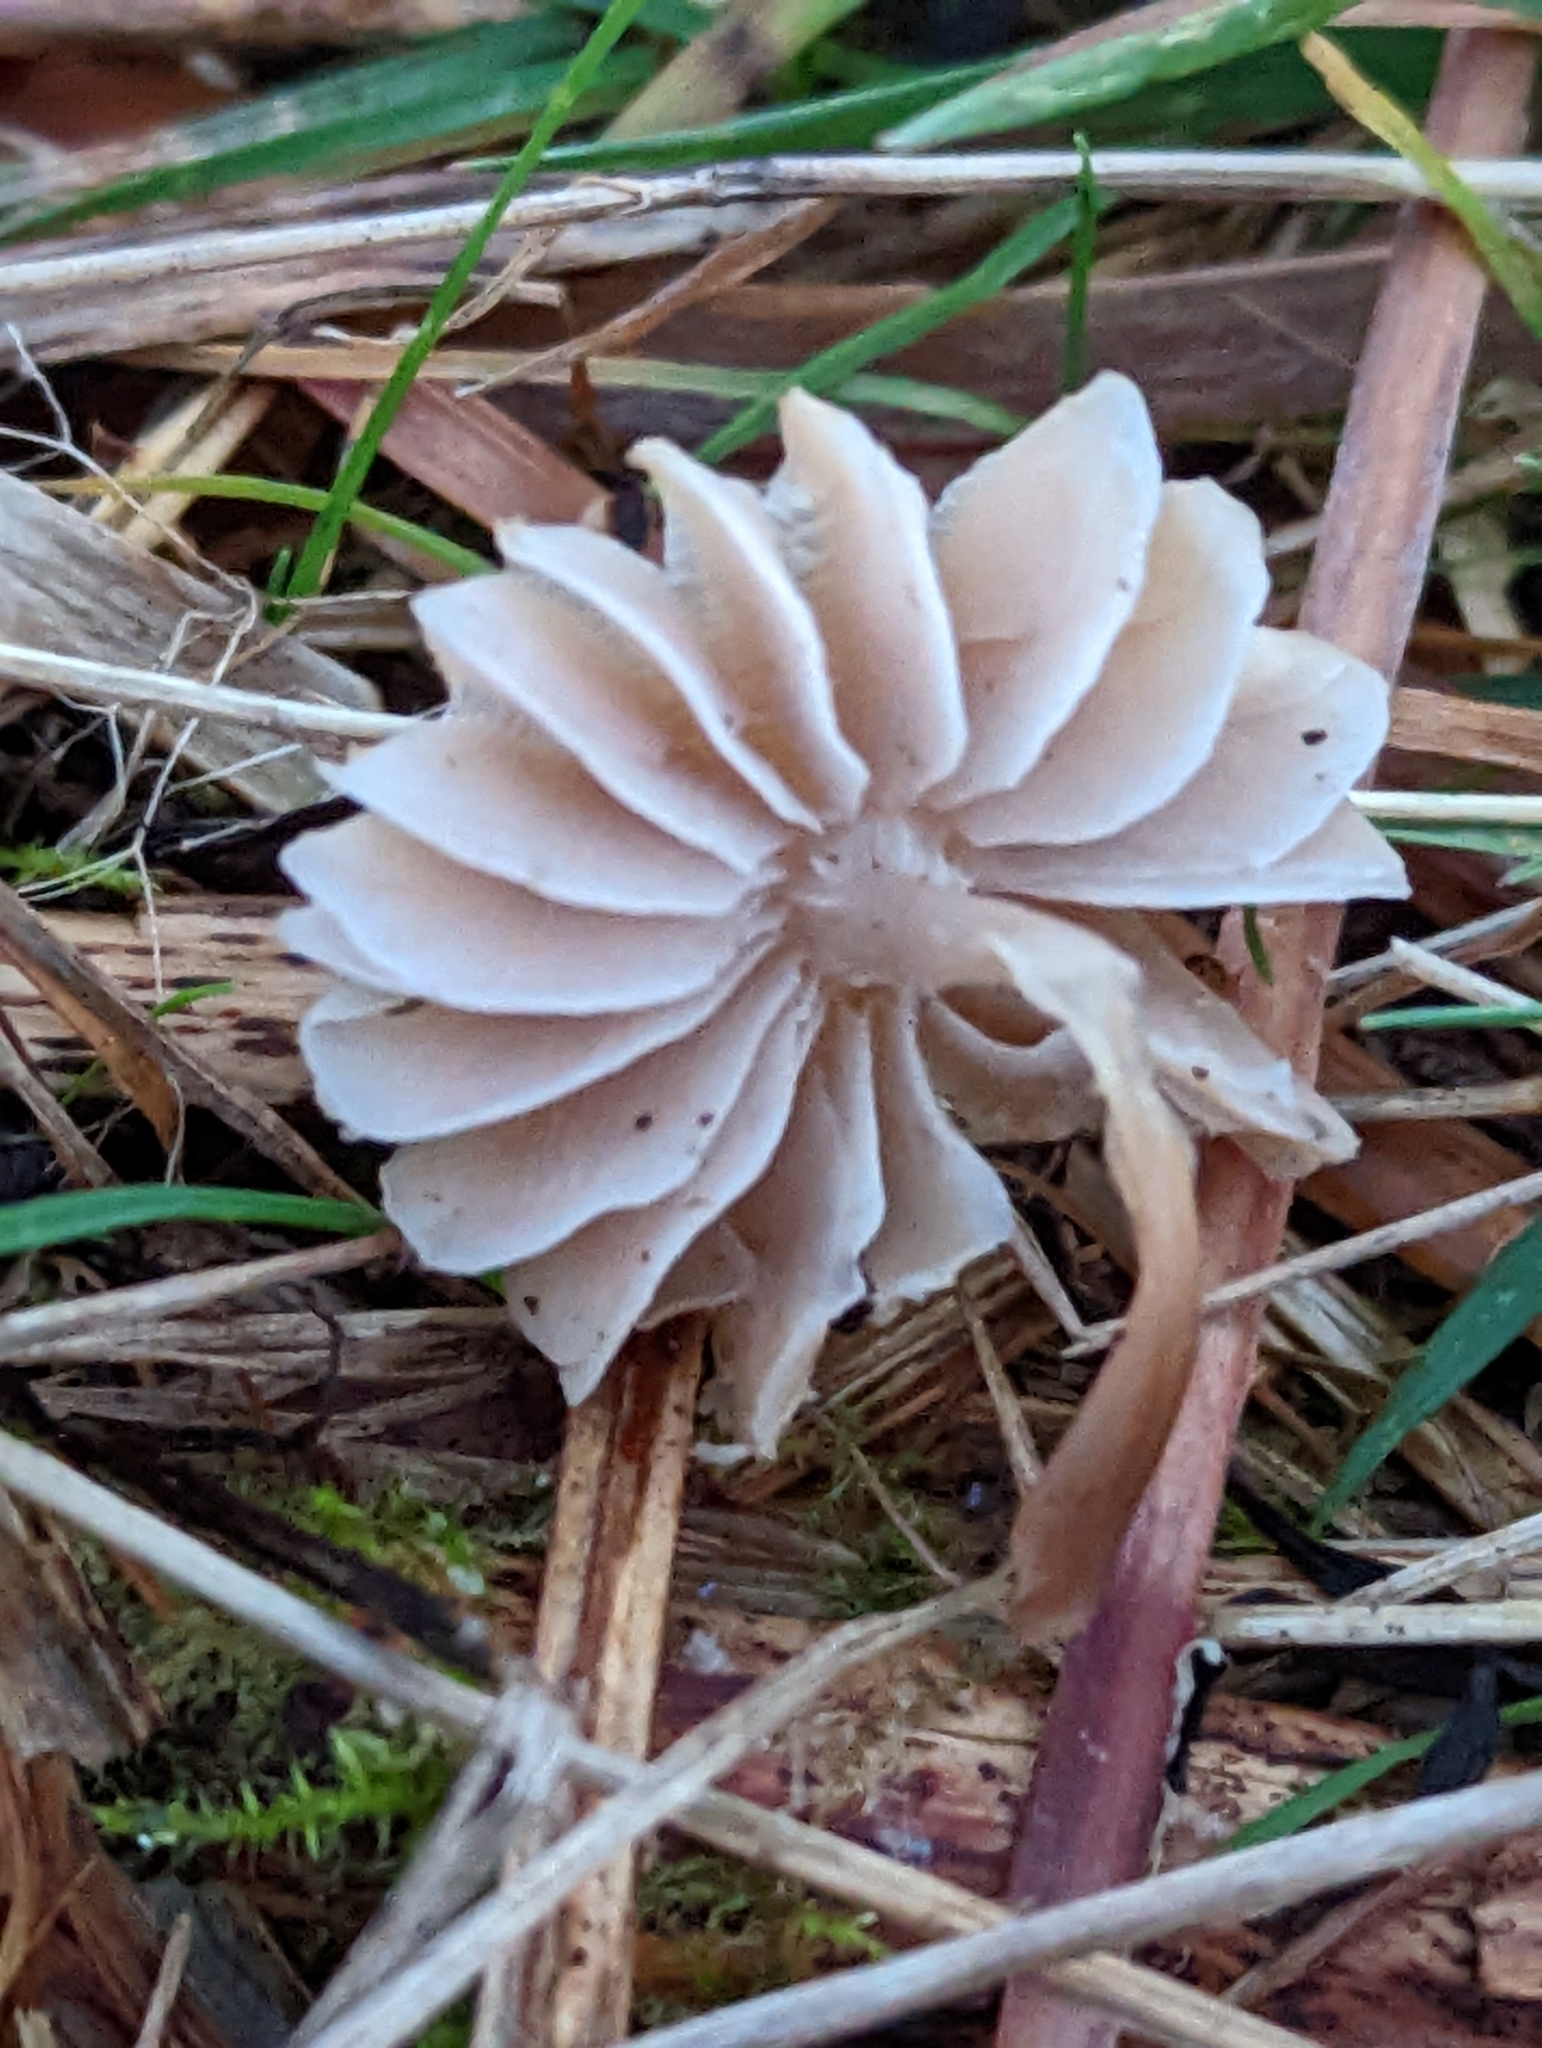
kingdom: Fungi
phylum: Basidiomycota
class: Agaricomycetes
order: Agaricales
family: Mycenaceae
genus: Mycena
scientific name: Mycena pura
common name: Lilac bonnet
